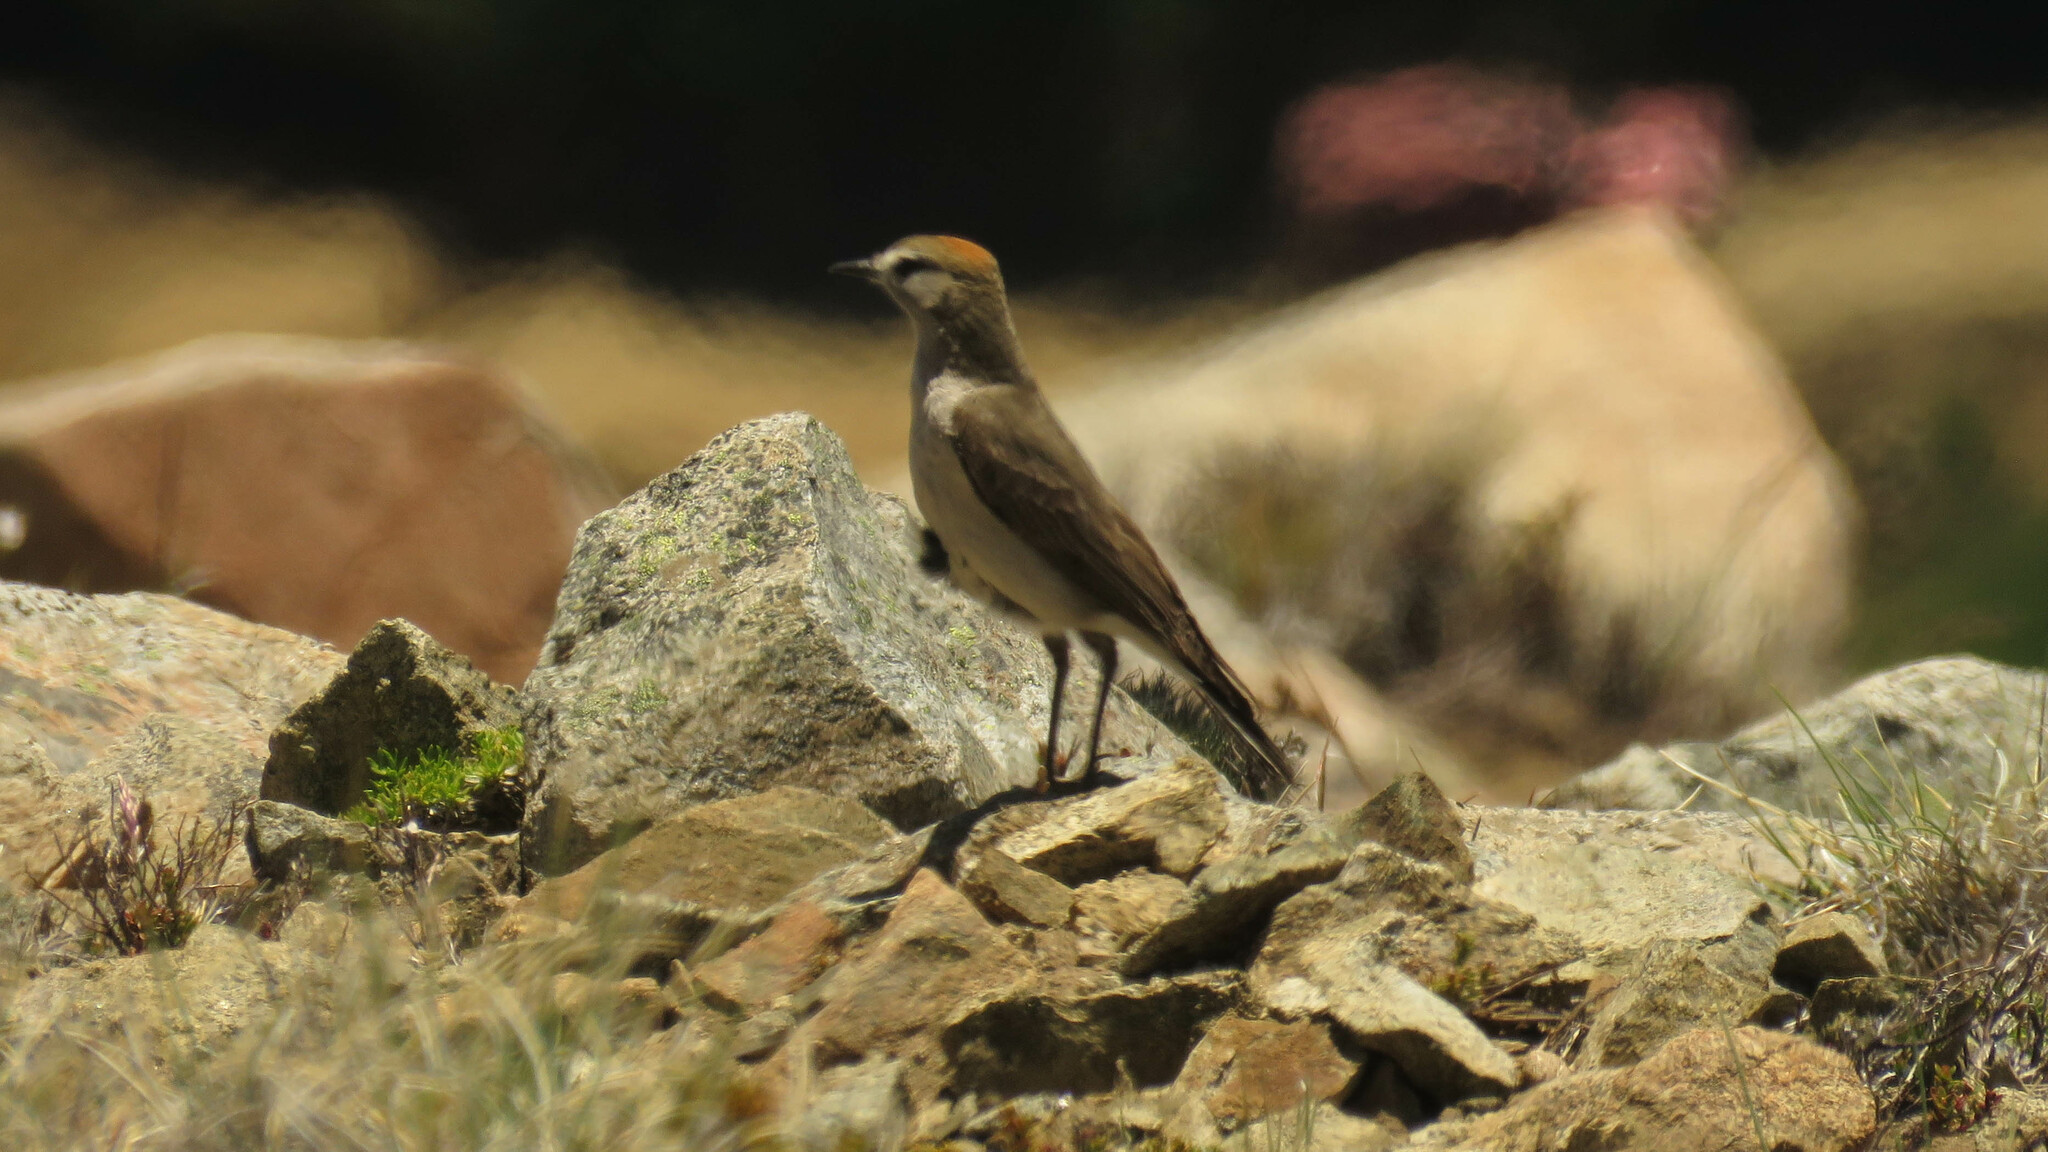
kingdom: Animalia
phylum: Chordata
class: Aves
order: Passeriformes
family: Tyrannidae
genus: Muscisaxicola
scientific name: Muscisaxicola albilora
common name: White-browed ground tyrant
